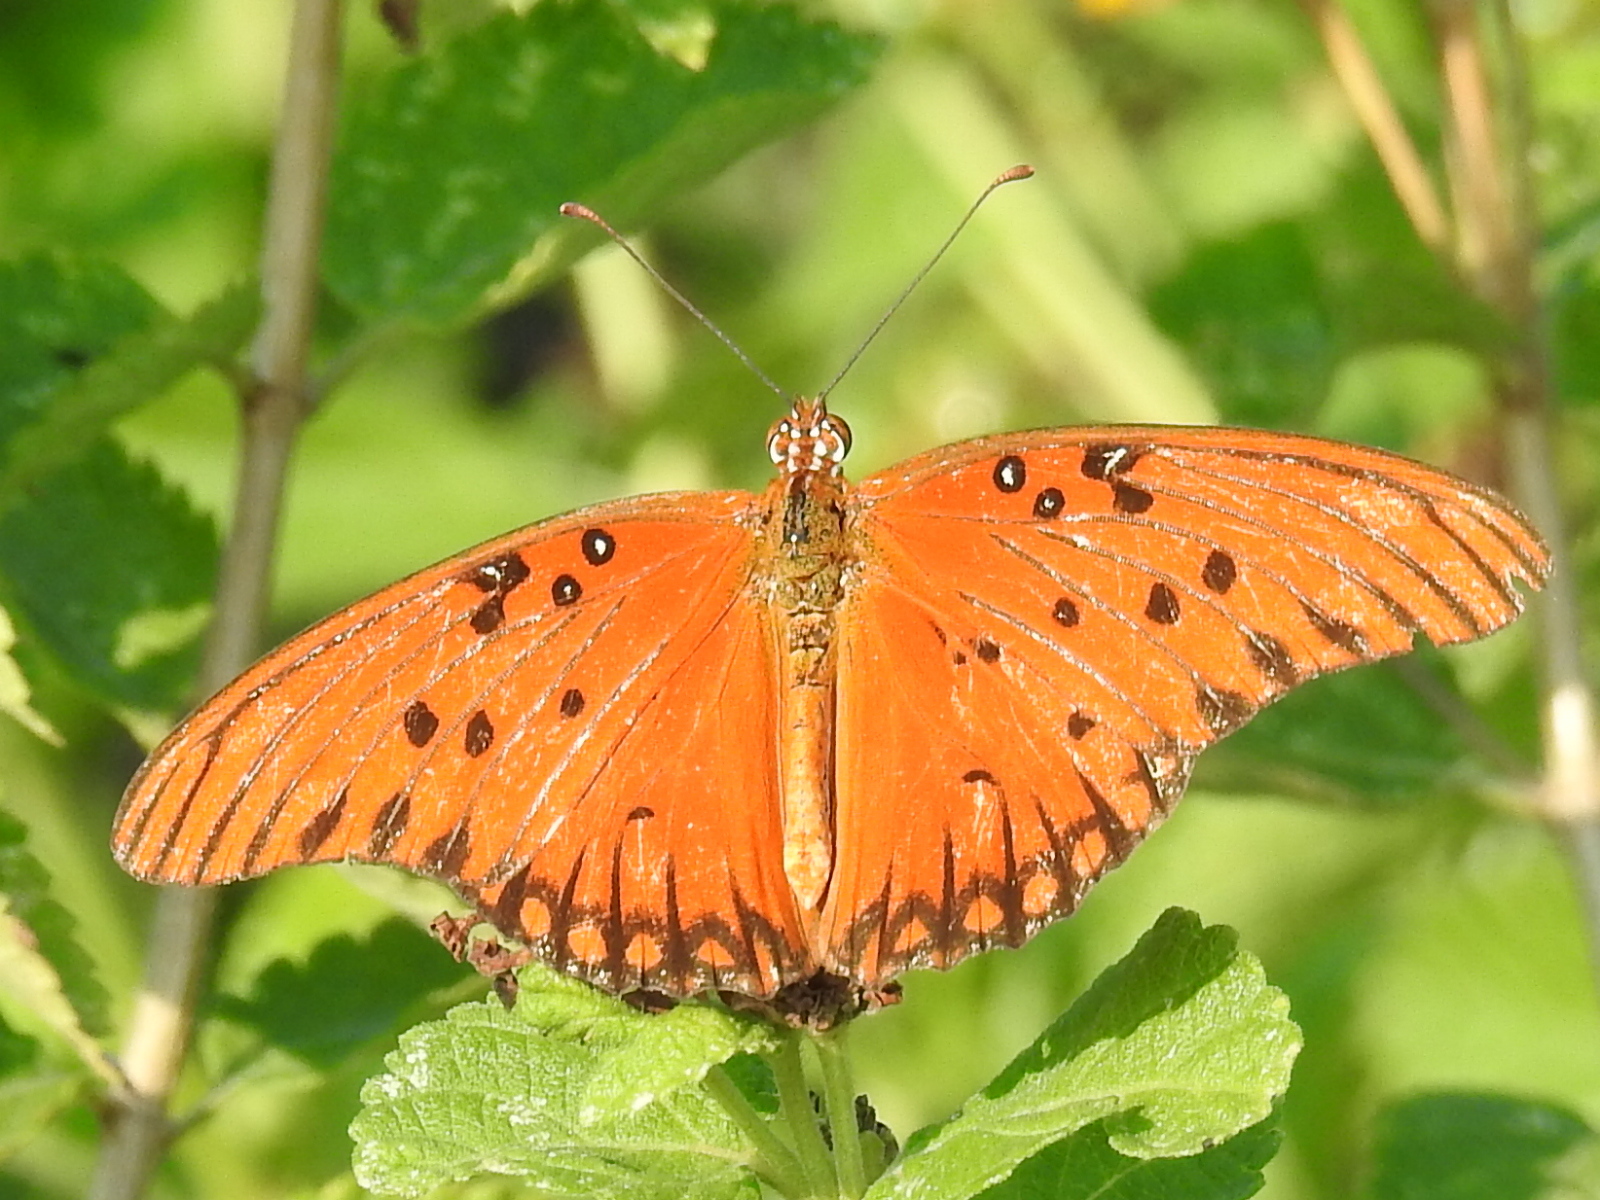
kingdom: Animalia
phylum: Arthropoda
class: Insecta
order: Lepidoptera
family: Nymphalidae
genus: Dione
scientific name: Dione vanillae
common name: Gulf fritillary
